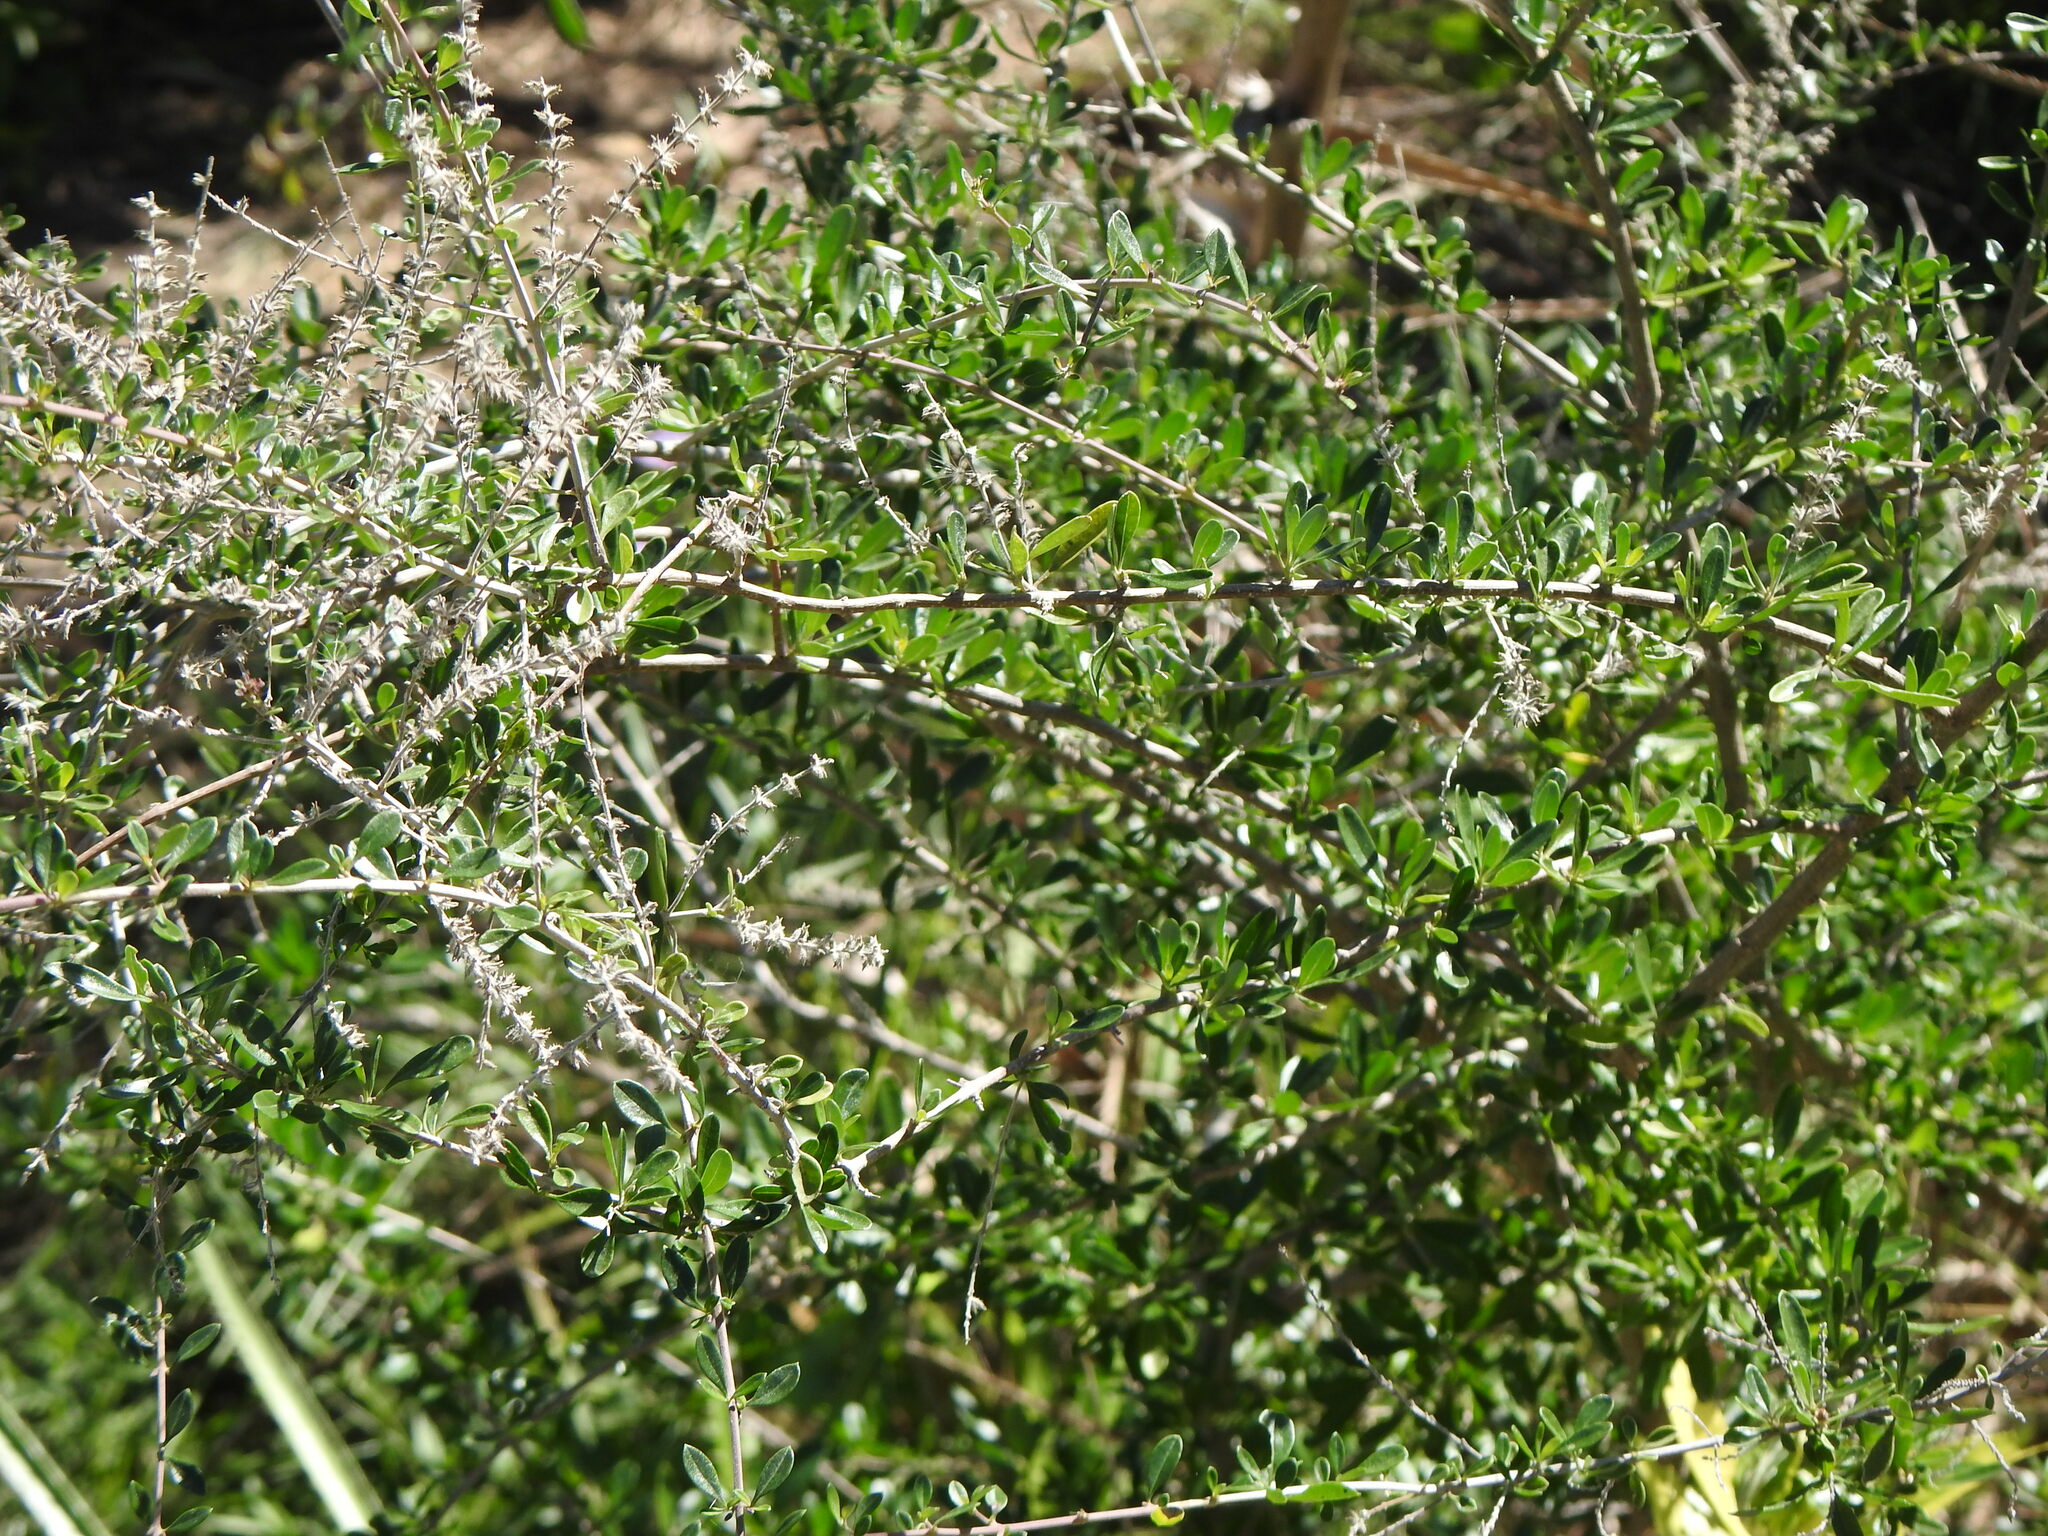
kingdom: Plantae
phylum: Tracheophyta
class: Magnoliopsida
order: Lamiales
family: Verbenaceae
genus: Aloysia
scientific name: Aloysia gratissima
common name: Common bee-brush
